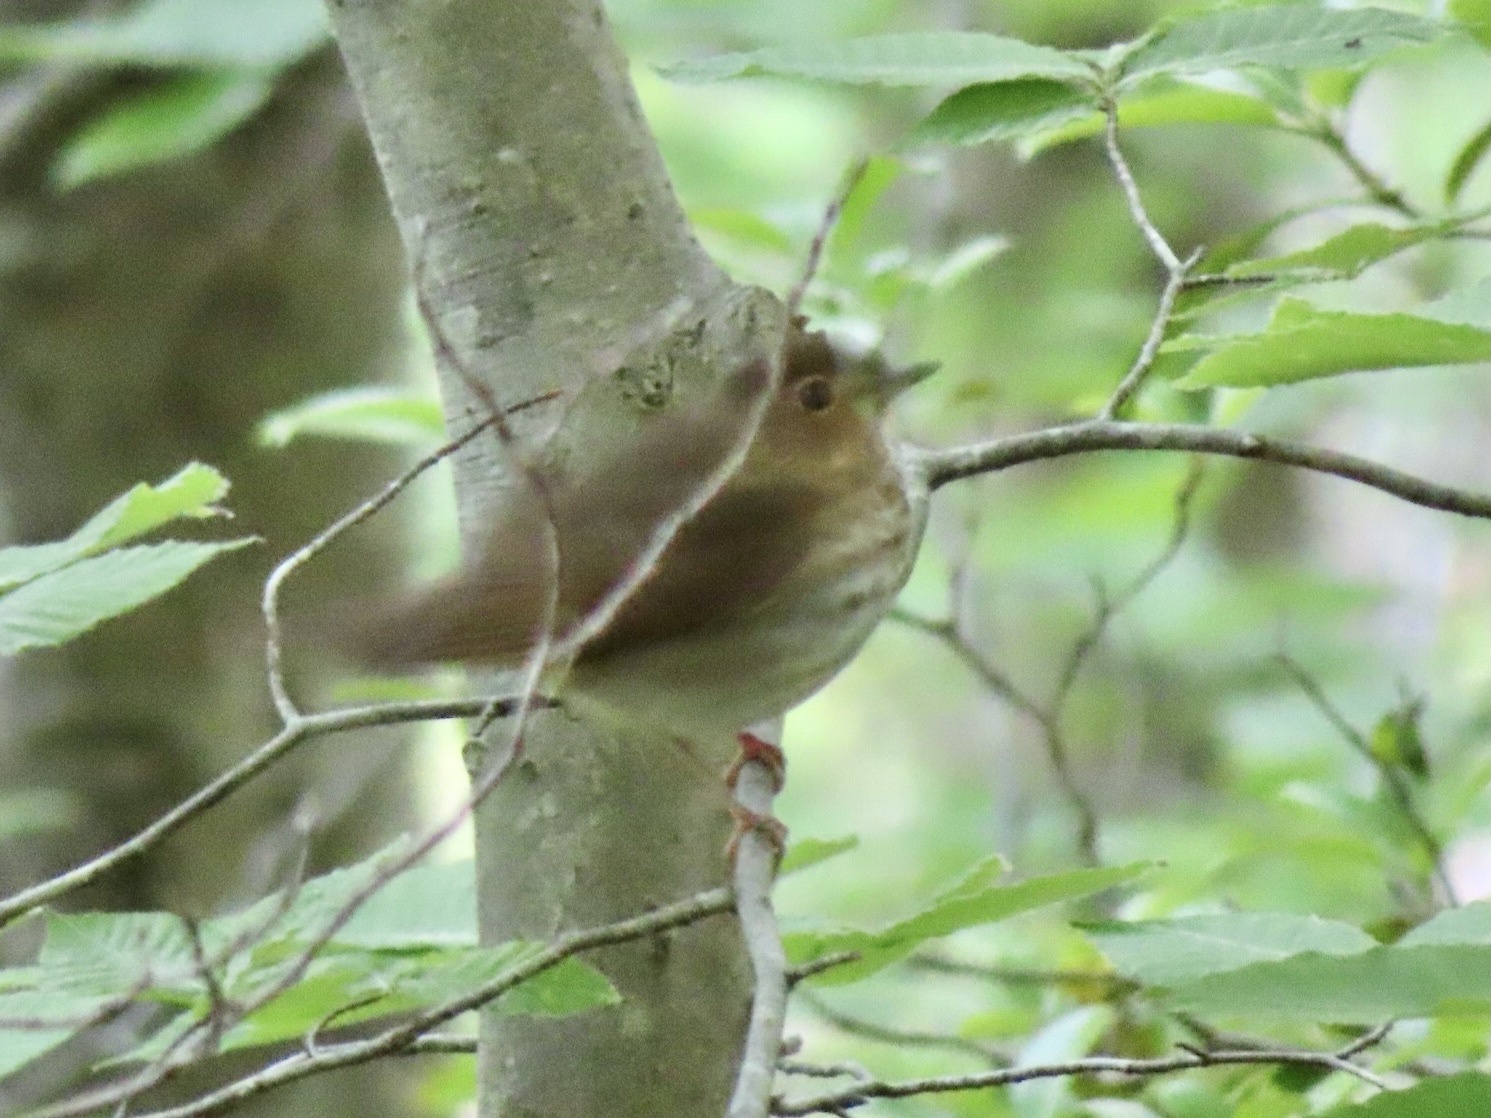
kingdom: Animalia
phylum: Chordata
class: Aves
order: Passeriformes
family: Turdidae
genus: Catharus
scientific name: Catharus ustulatus
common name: Swainson's thrush
